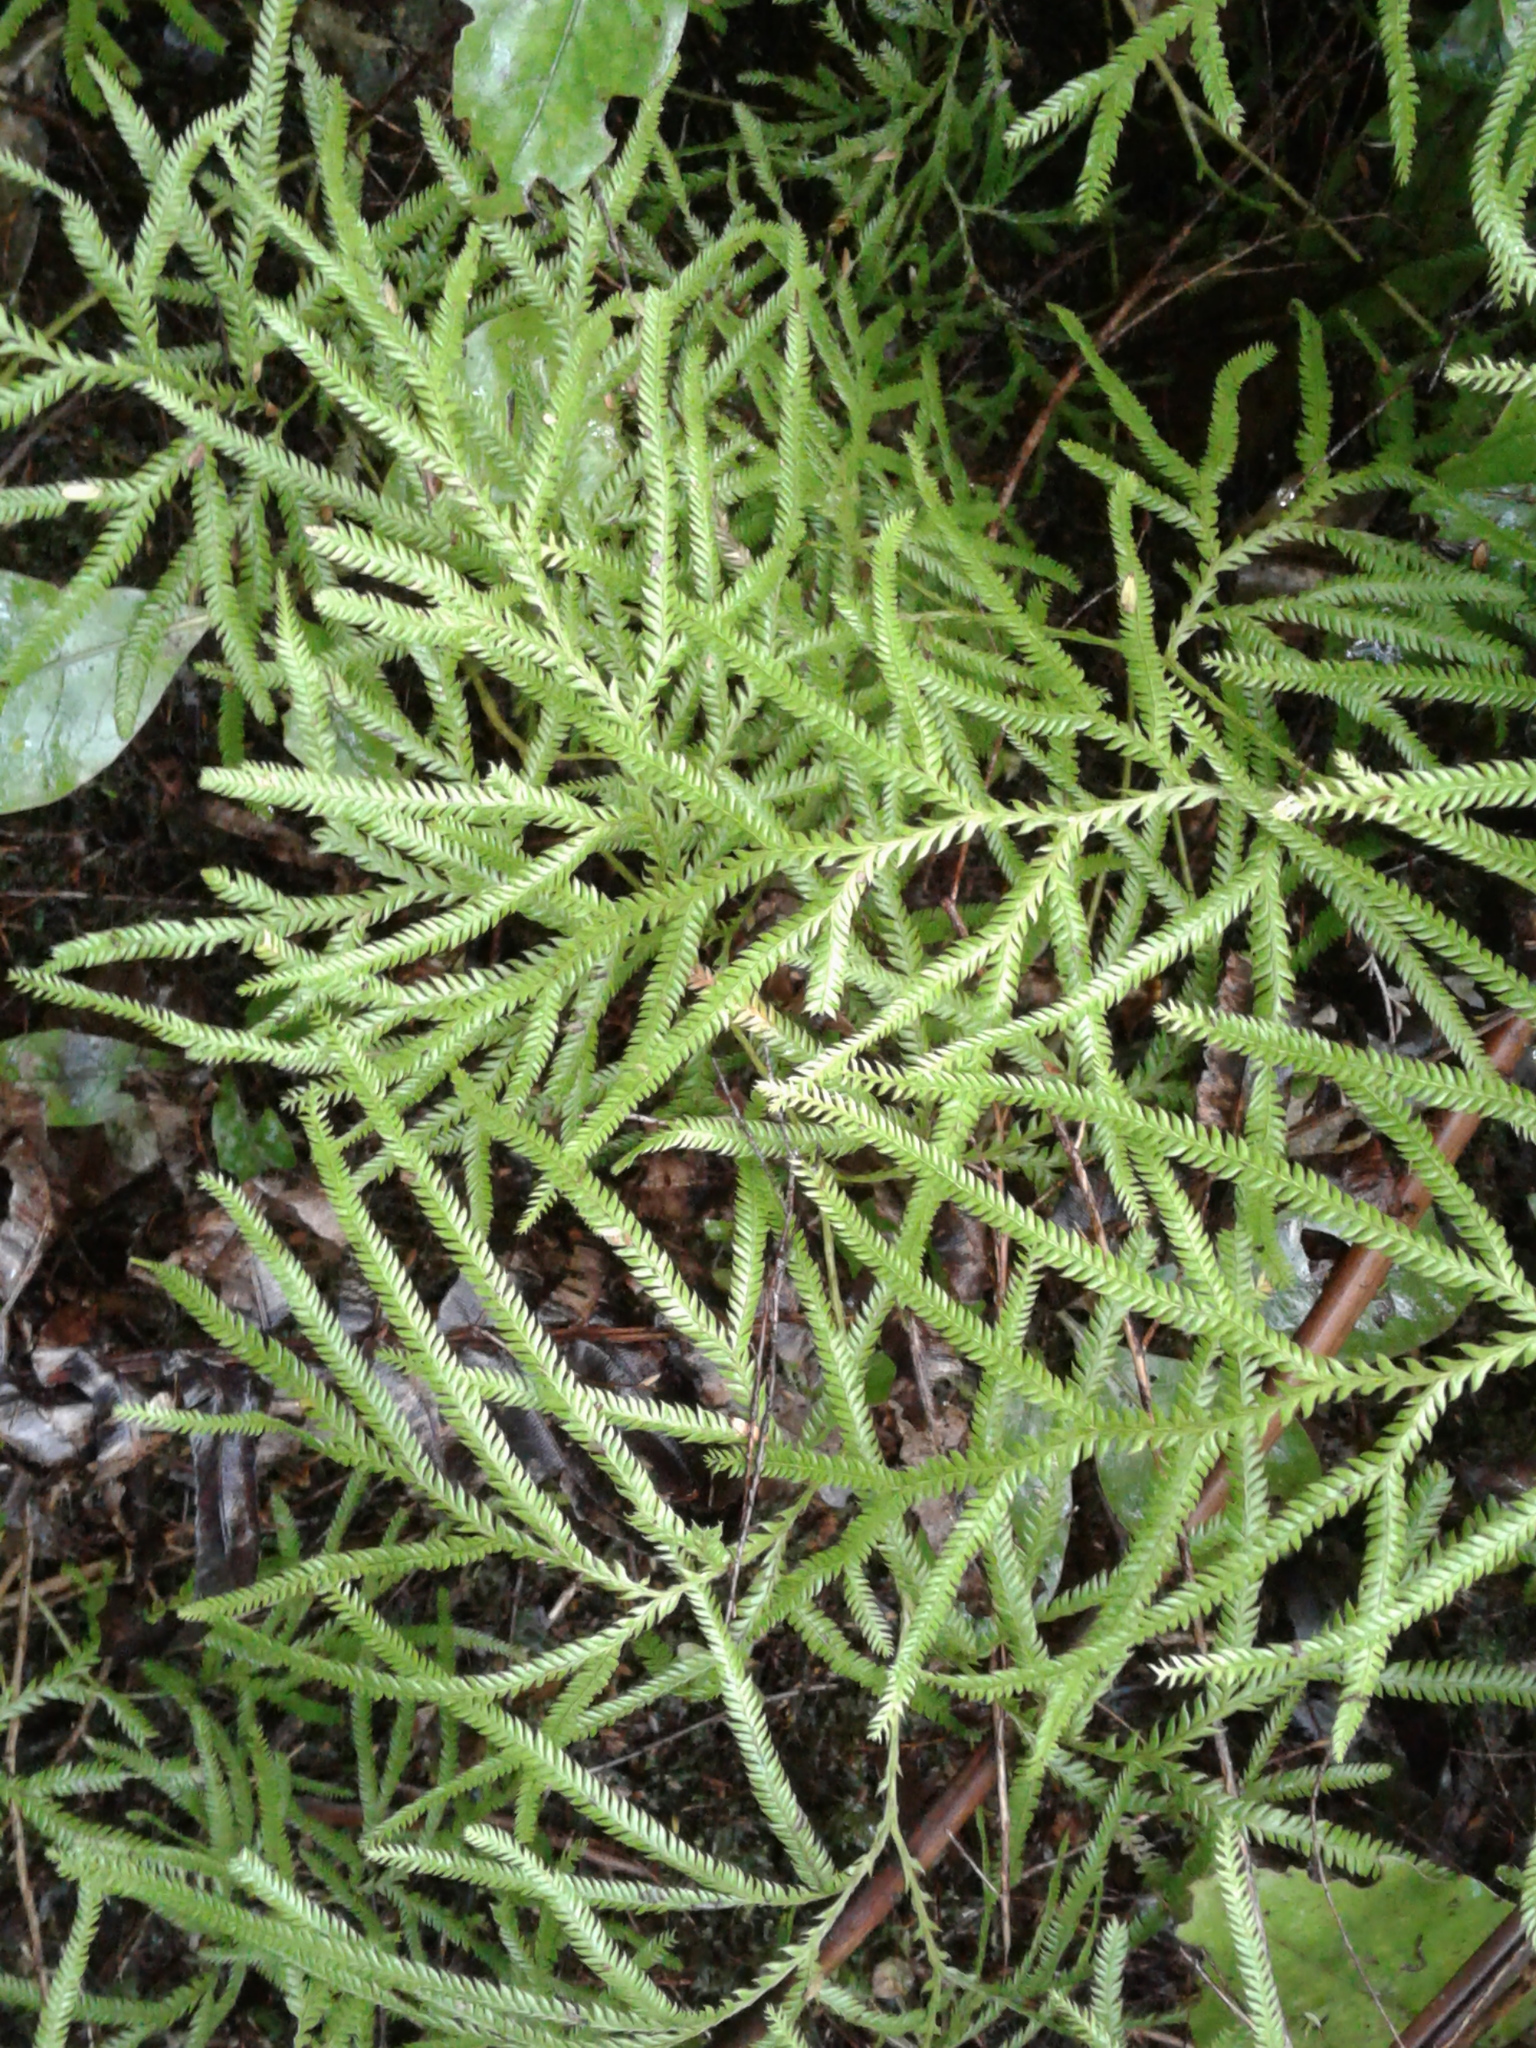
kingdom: Plantae
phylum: Tracheophyta
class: Lycopodiopsida
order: Lycopodiales
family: Lycopodiaceae
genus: Lycopodium
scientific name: Lycopodium volubile
